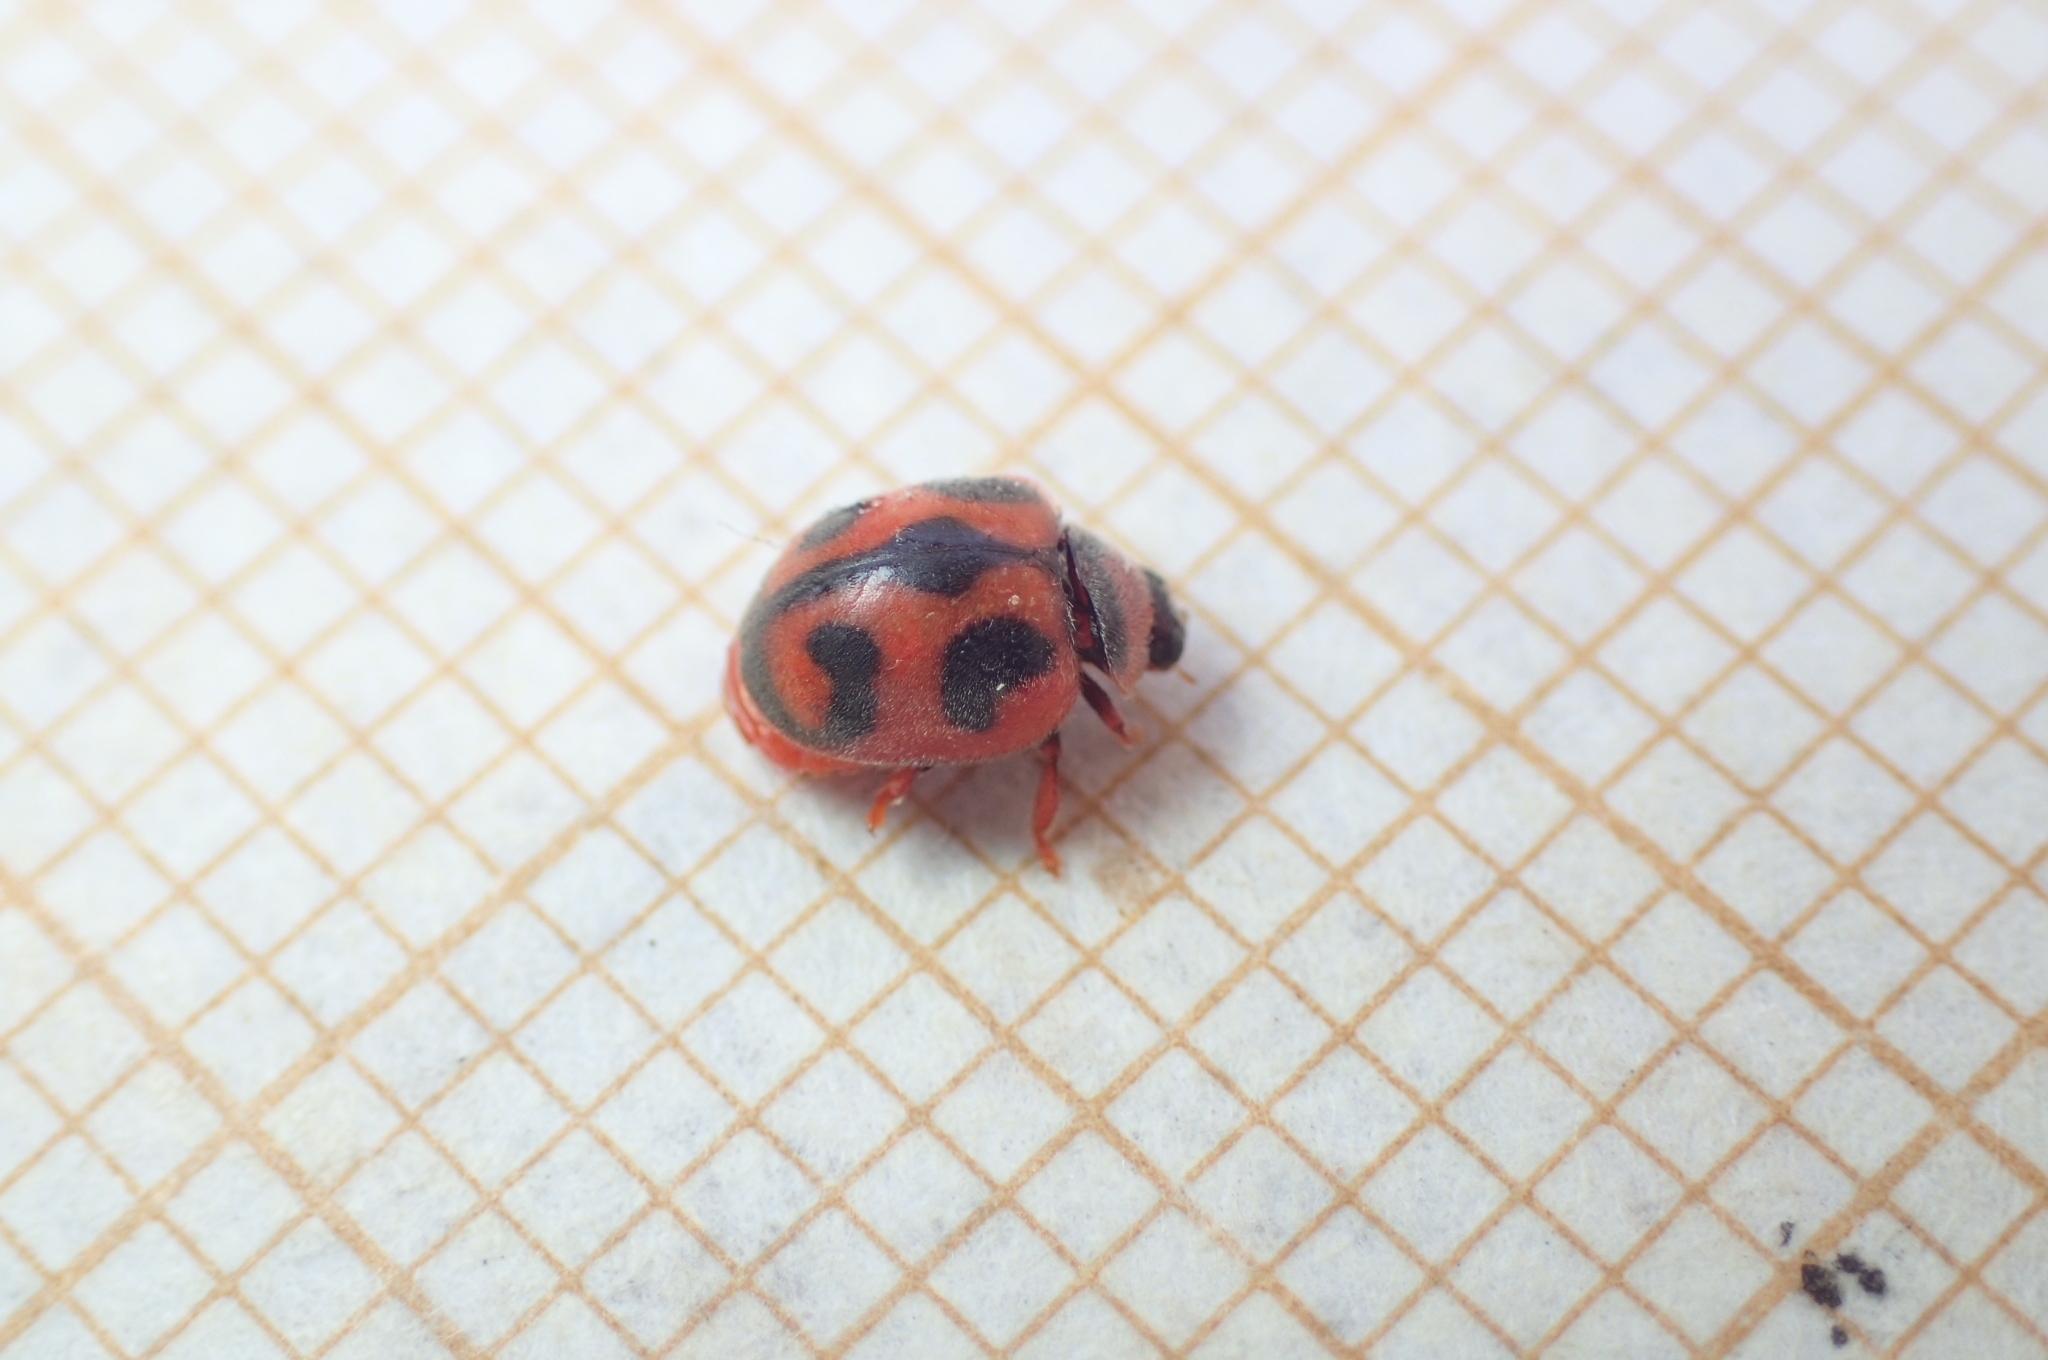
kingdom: Animalia
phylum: Arthropoda
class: Insecta
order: Coleoptera
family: Coccinellidae
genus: Novius
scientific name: Novius cardinalis
